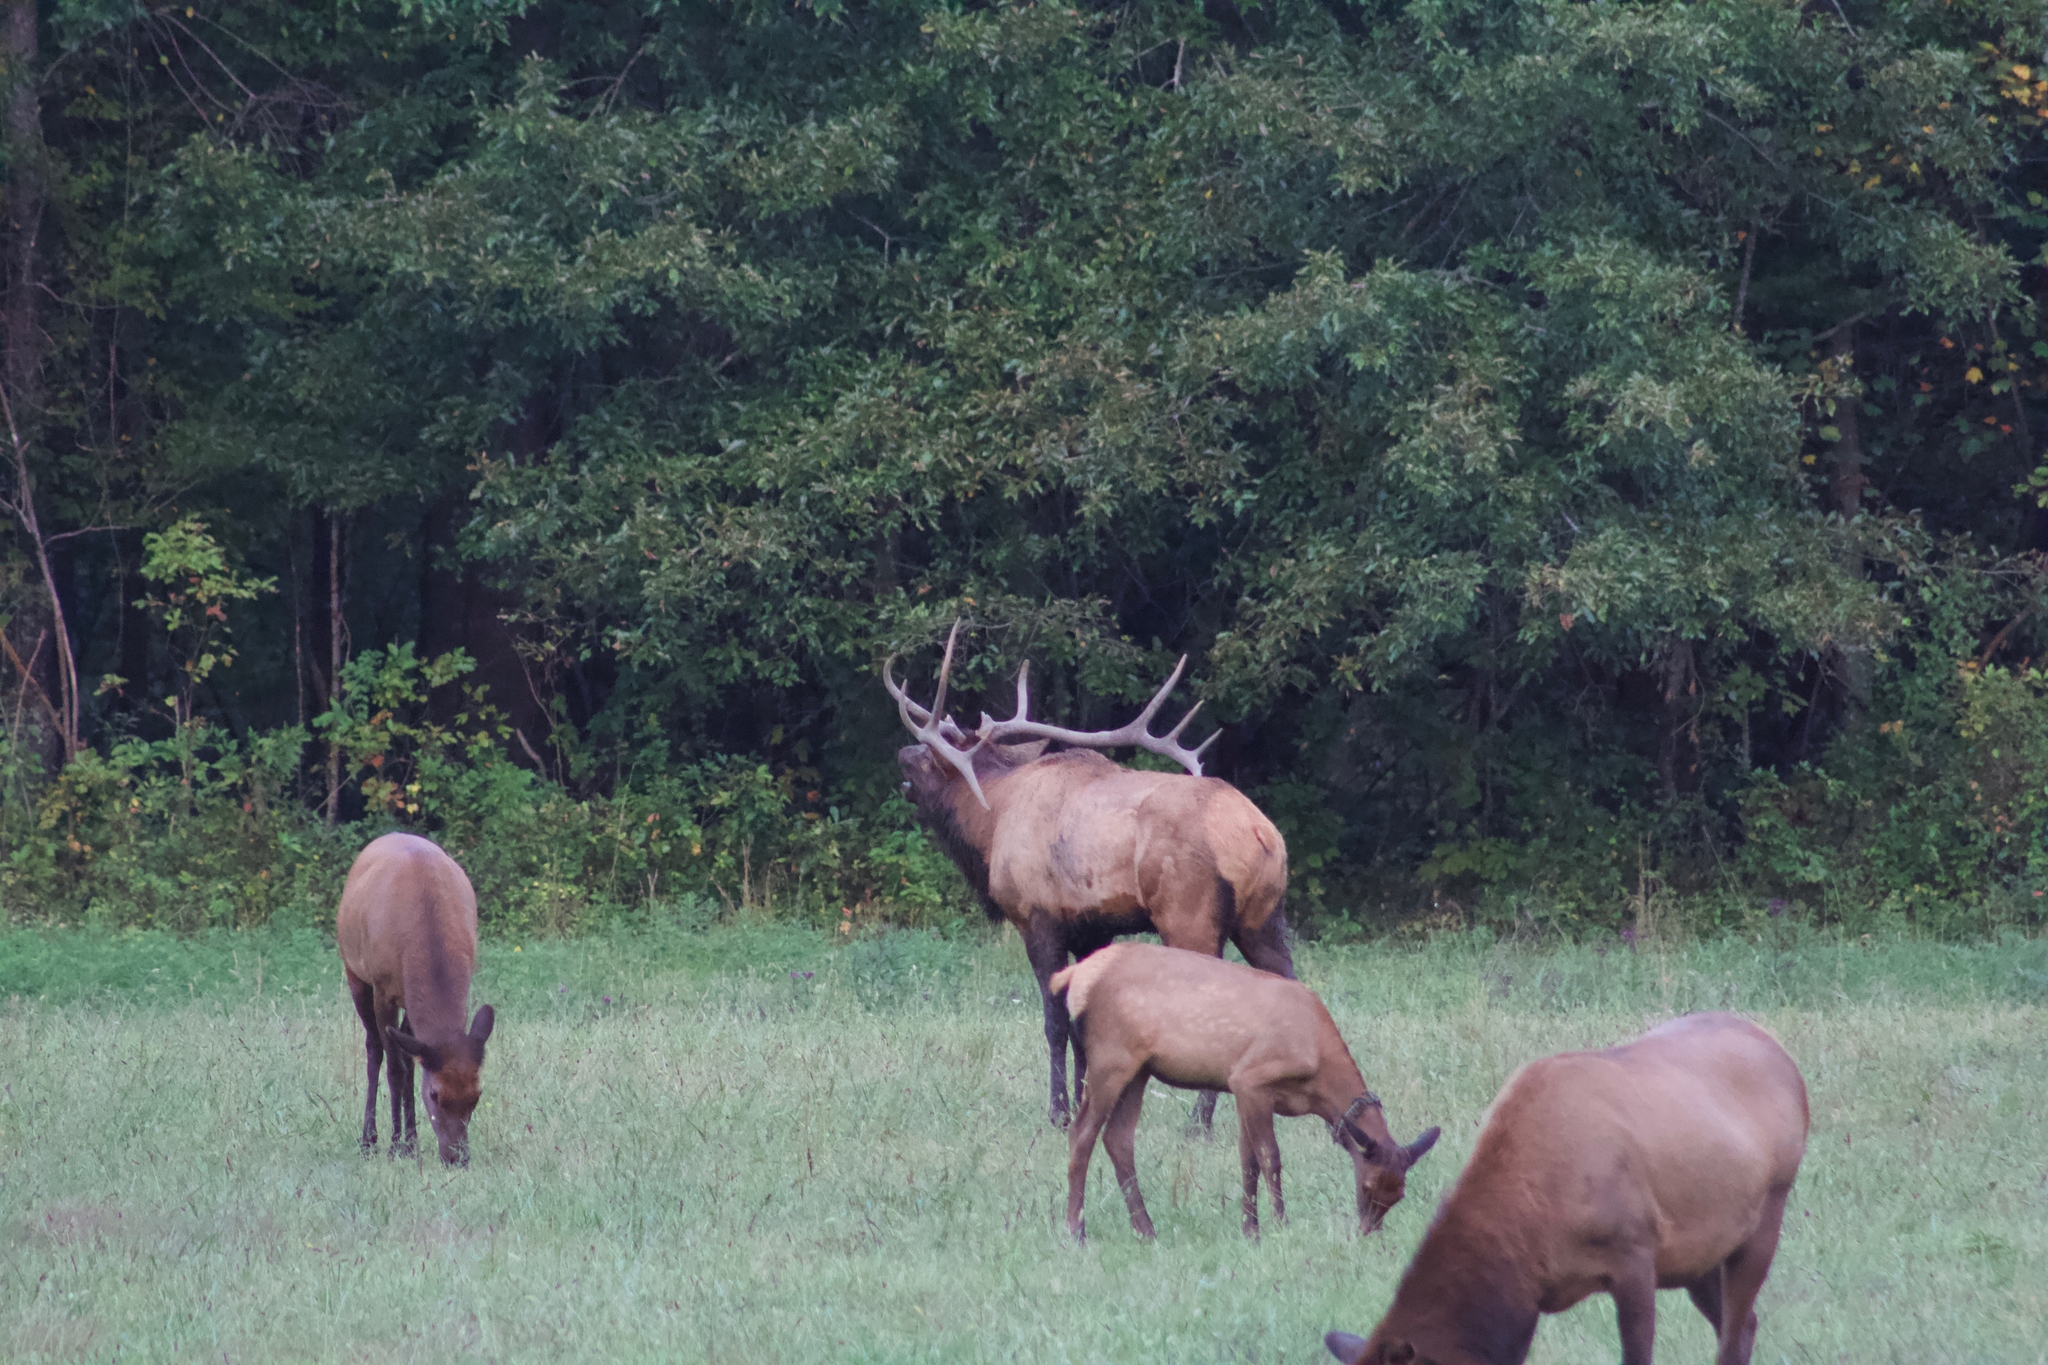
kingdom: Animalia
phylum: Chordata
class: Mammalia
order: Artiodactyla
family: Cervidae
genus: Cervus
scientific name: Cervus elaphus
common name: Red deer
